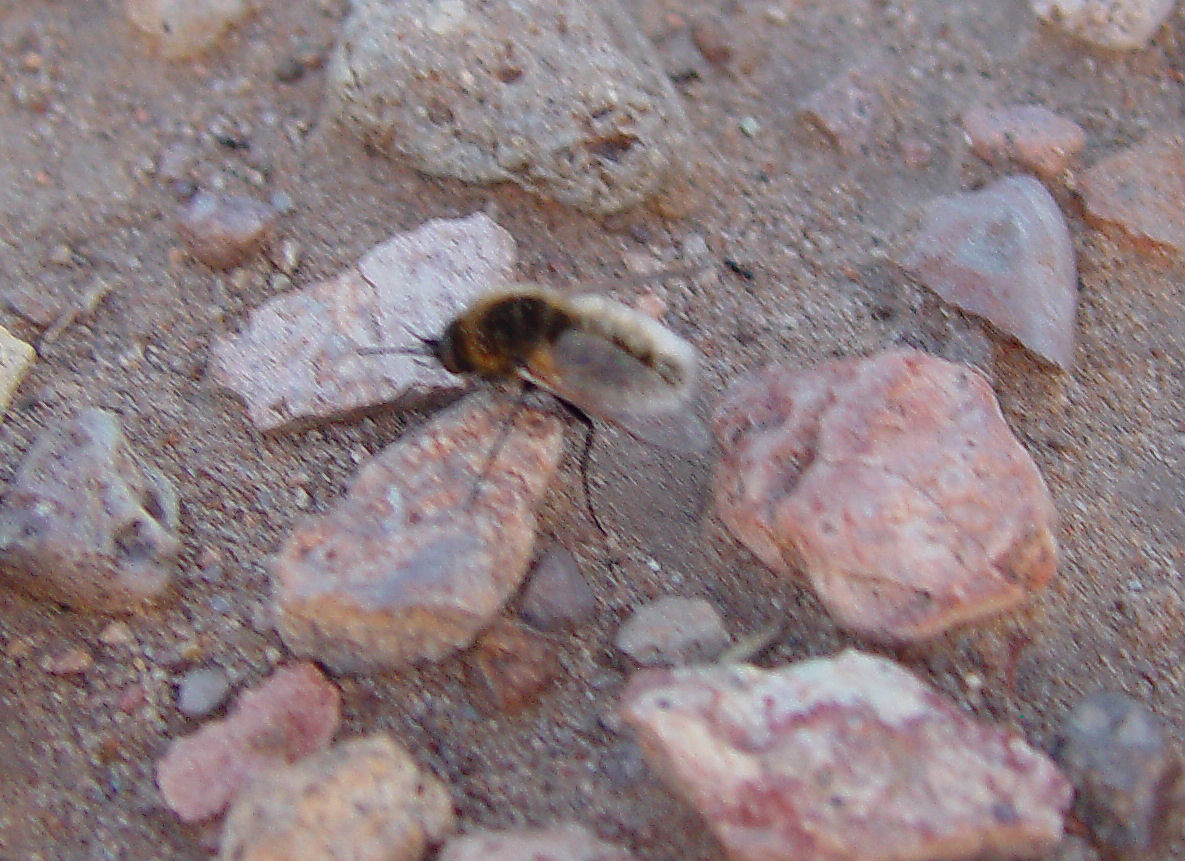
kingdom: Animalia
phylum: Arthropoda
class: Insecta
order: Diptera
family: Bombyliidae
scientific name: Bombyliidae
